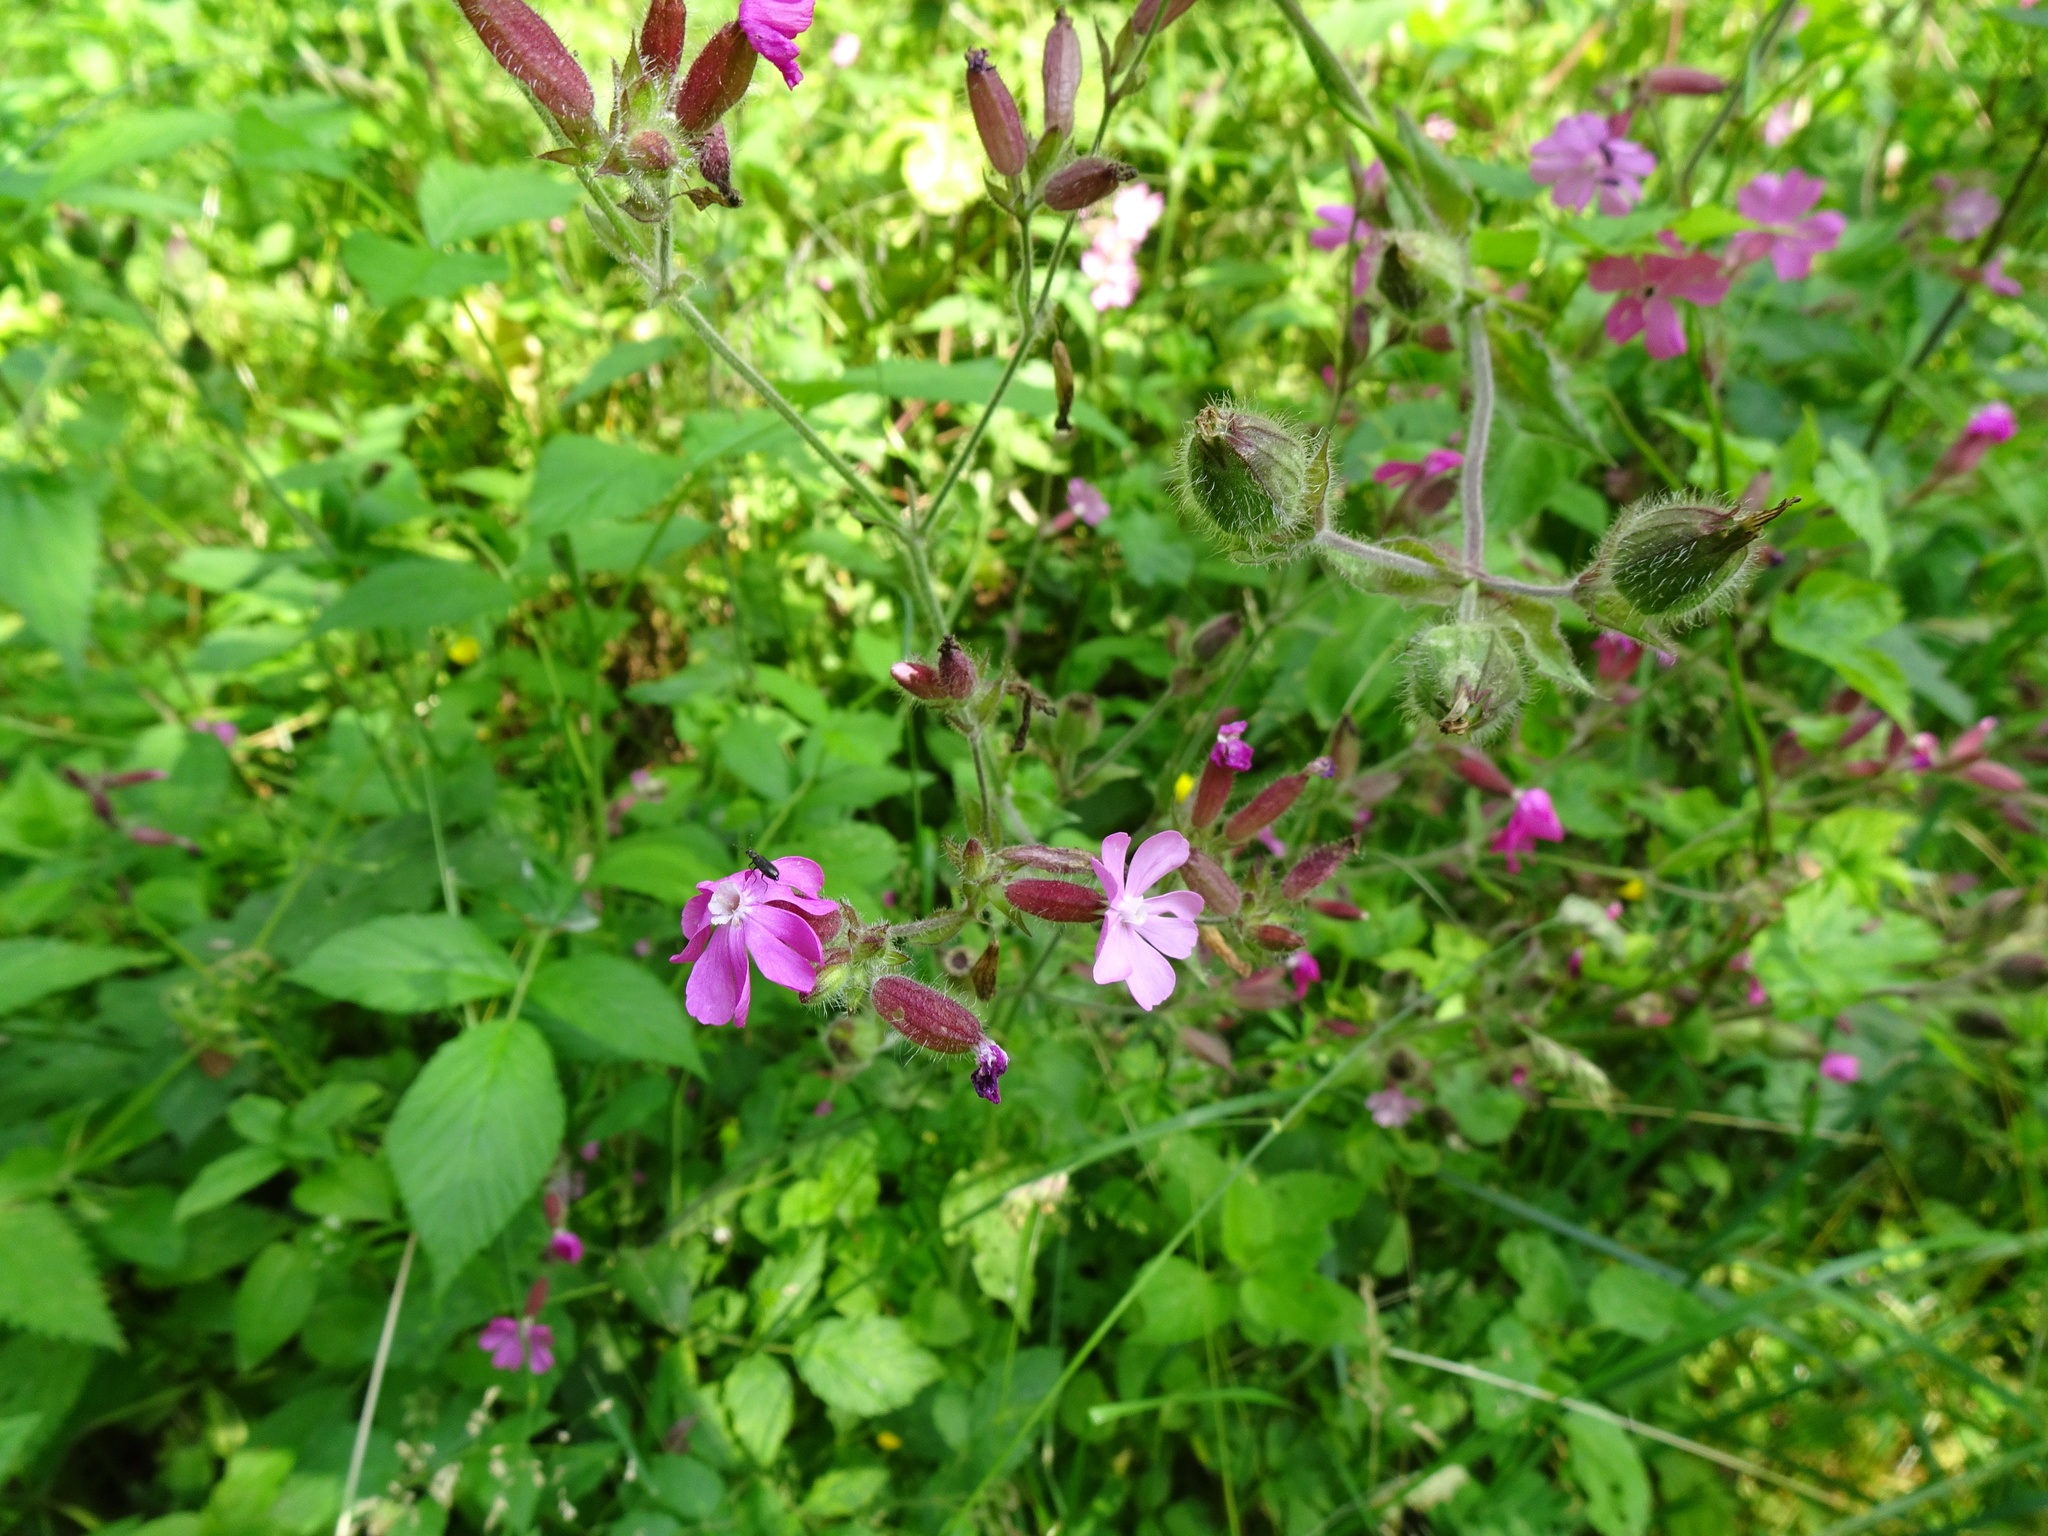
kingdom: Plantae
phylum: Tracheophyta
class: Magnoliopsida
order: Caryophyllales
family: Caryophyllaceae
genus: Silene
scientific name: Silene dioica
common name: Red campion
